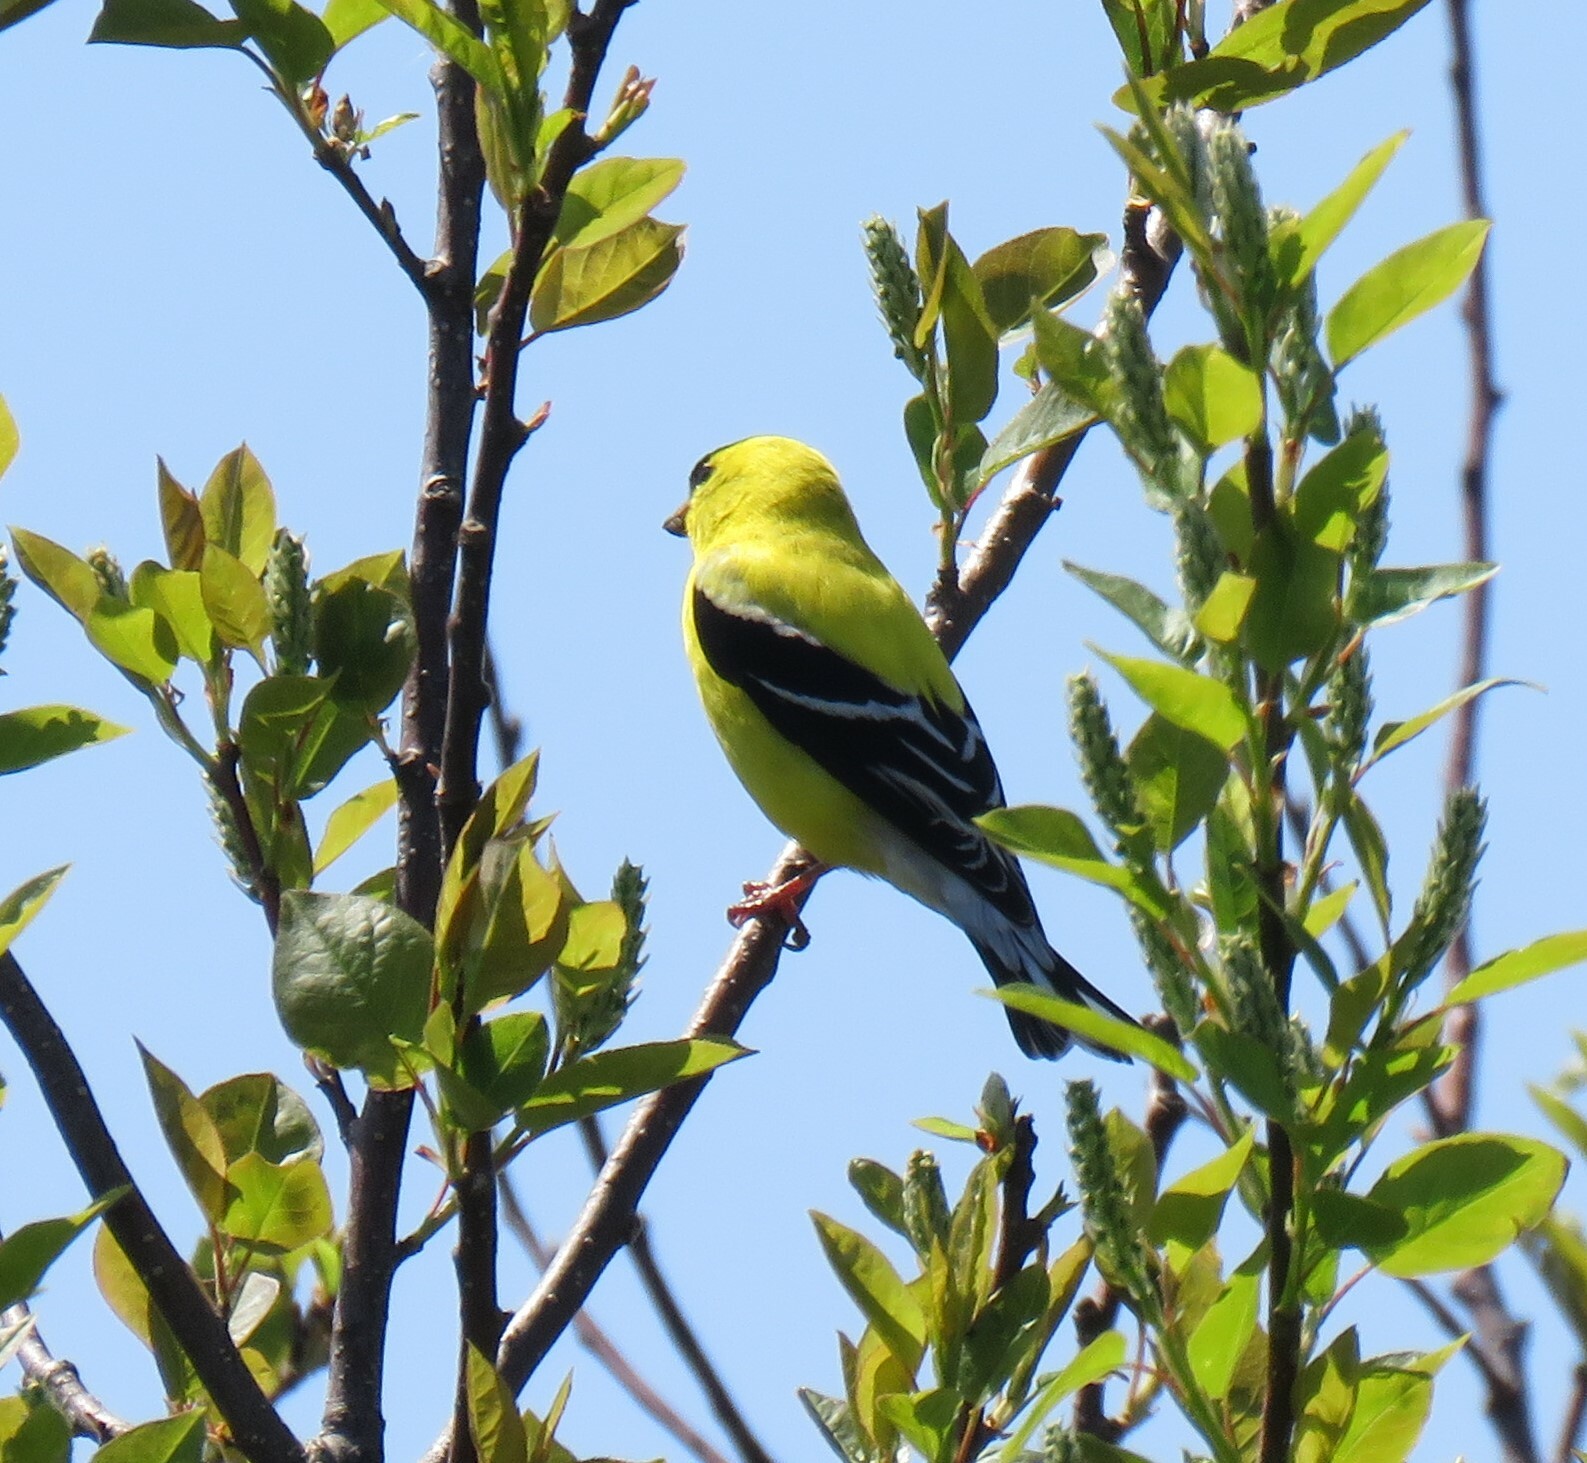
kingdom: Animalia
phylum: Chordata
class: Aves
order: Passeriformes
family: Fringillidae
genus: Spinus
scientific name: Spinus tristis
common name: American goldfinch
